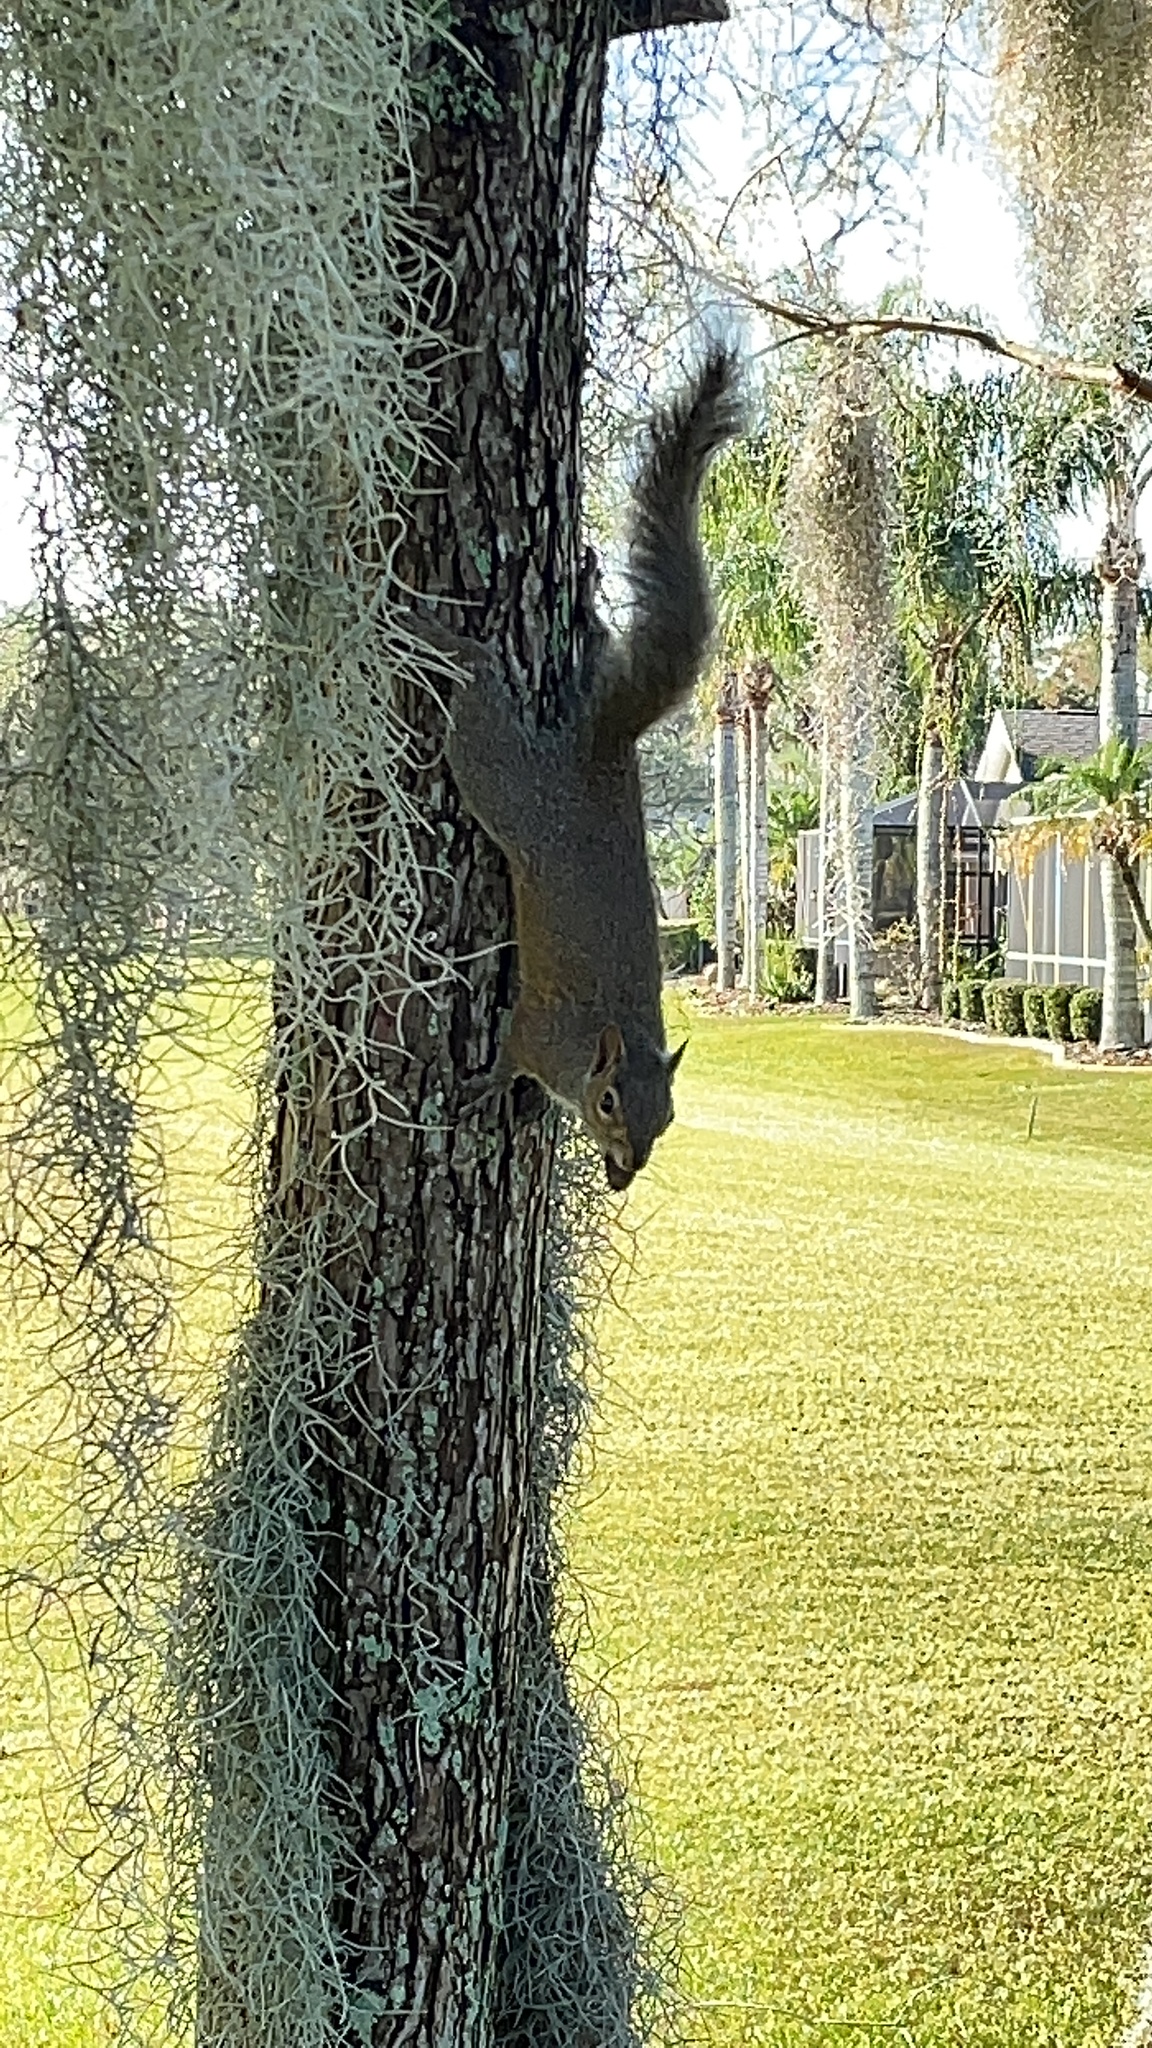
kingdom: Animalia
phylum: Chordata
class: Mammalia
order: Rodentia
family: Sciuridae
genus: Sciurus
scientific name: Sciurus carolinensis
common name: Eastern gray squirrel
